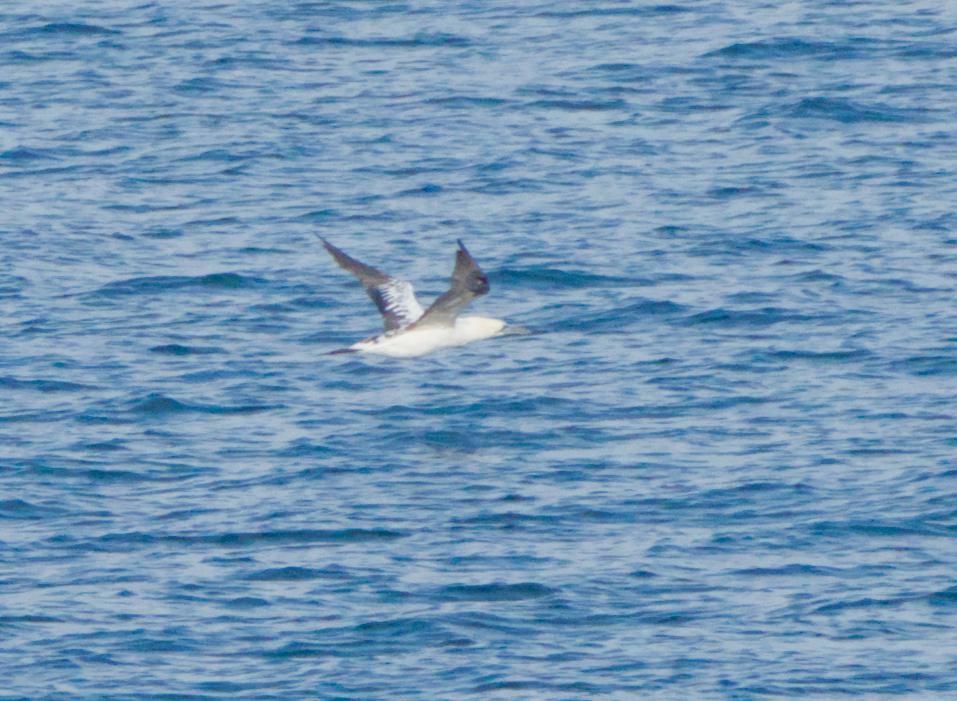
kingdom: Animalia
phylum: Chordata
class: Aves
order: Suliformes
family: Sulidae
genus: Morus
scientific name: Morus bassanus
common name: Northern gannet
